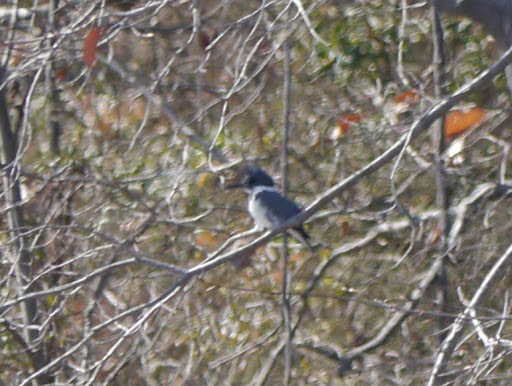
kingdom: Animalia
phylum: Chordata
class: Aves
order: Coraciiformes
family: Alcedinidae
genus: Megaceryle
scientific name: Megaceryle alcyon
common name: Belted kingfisher
